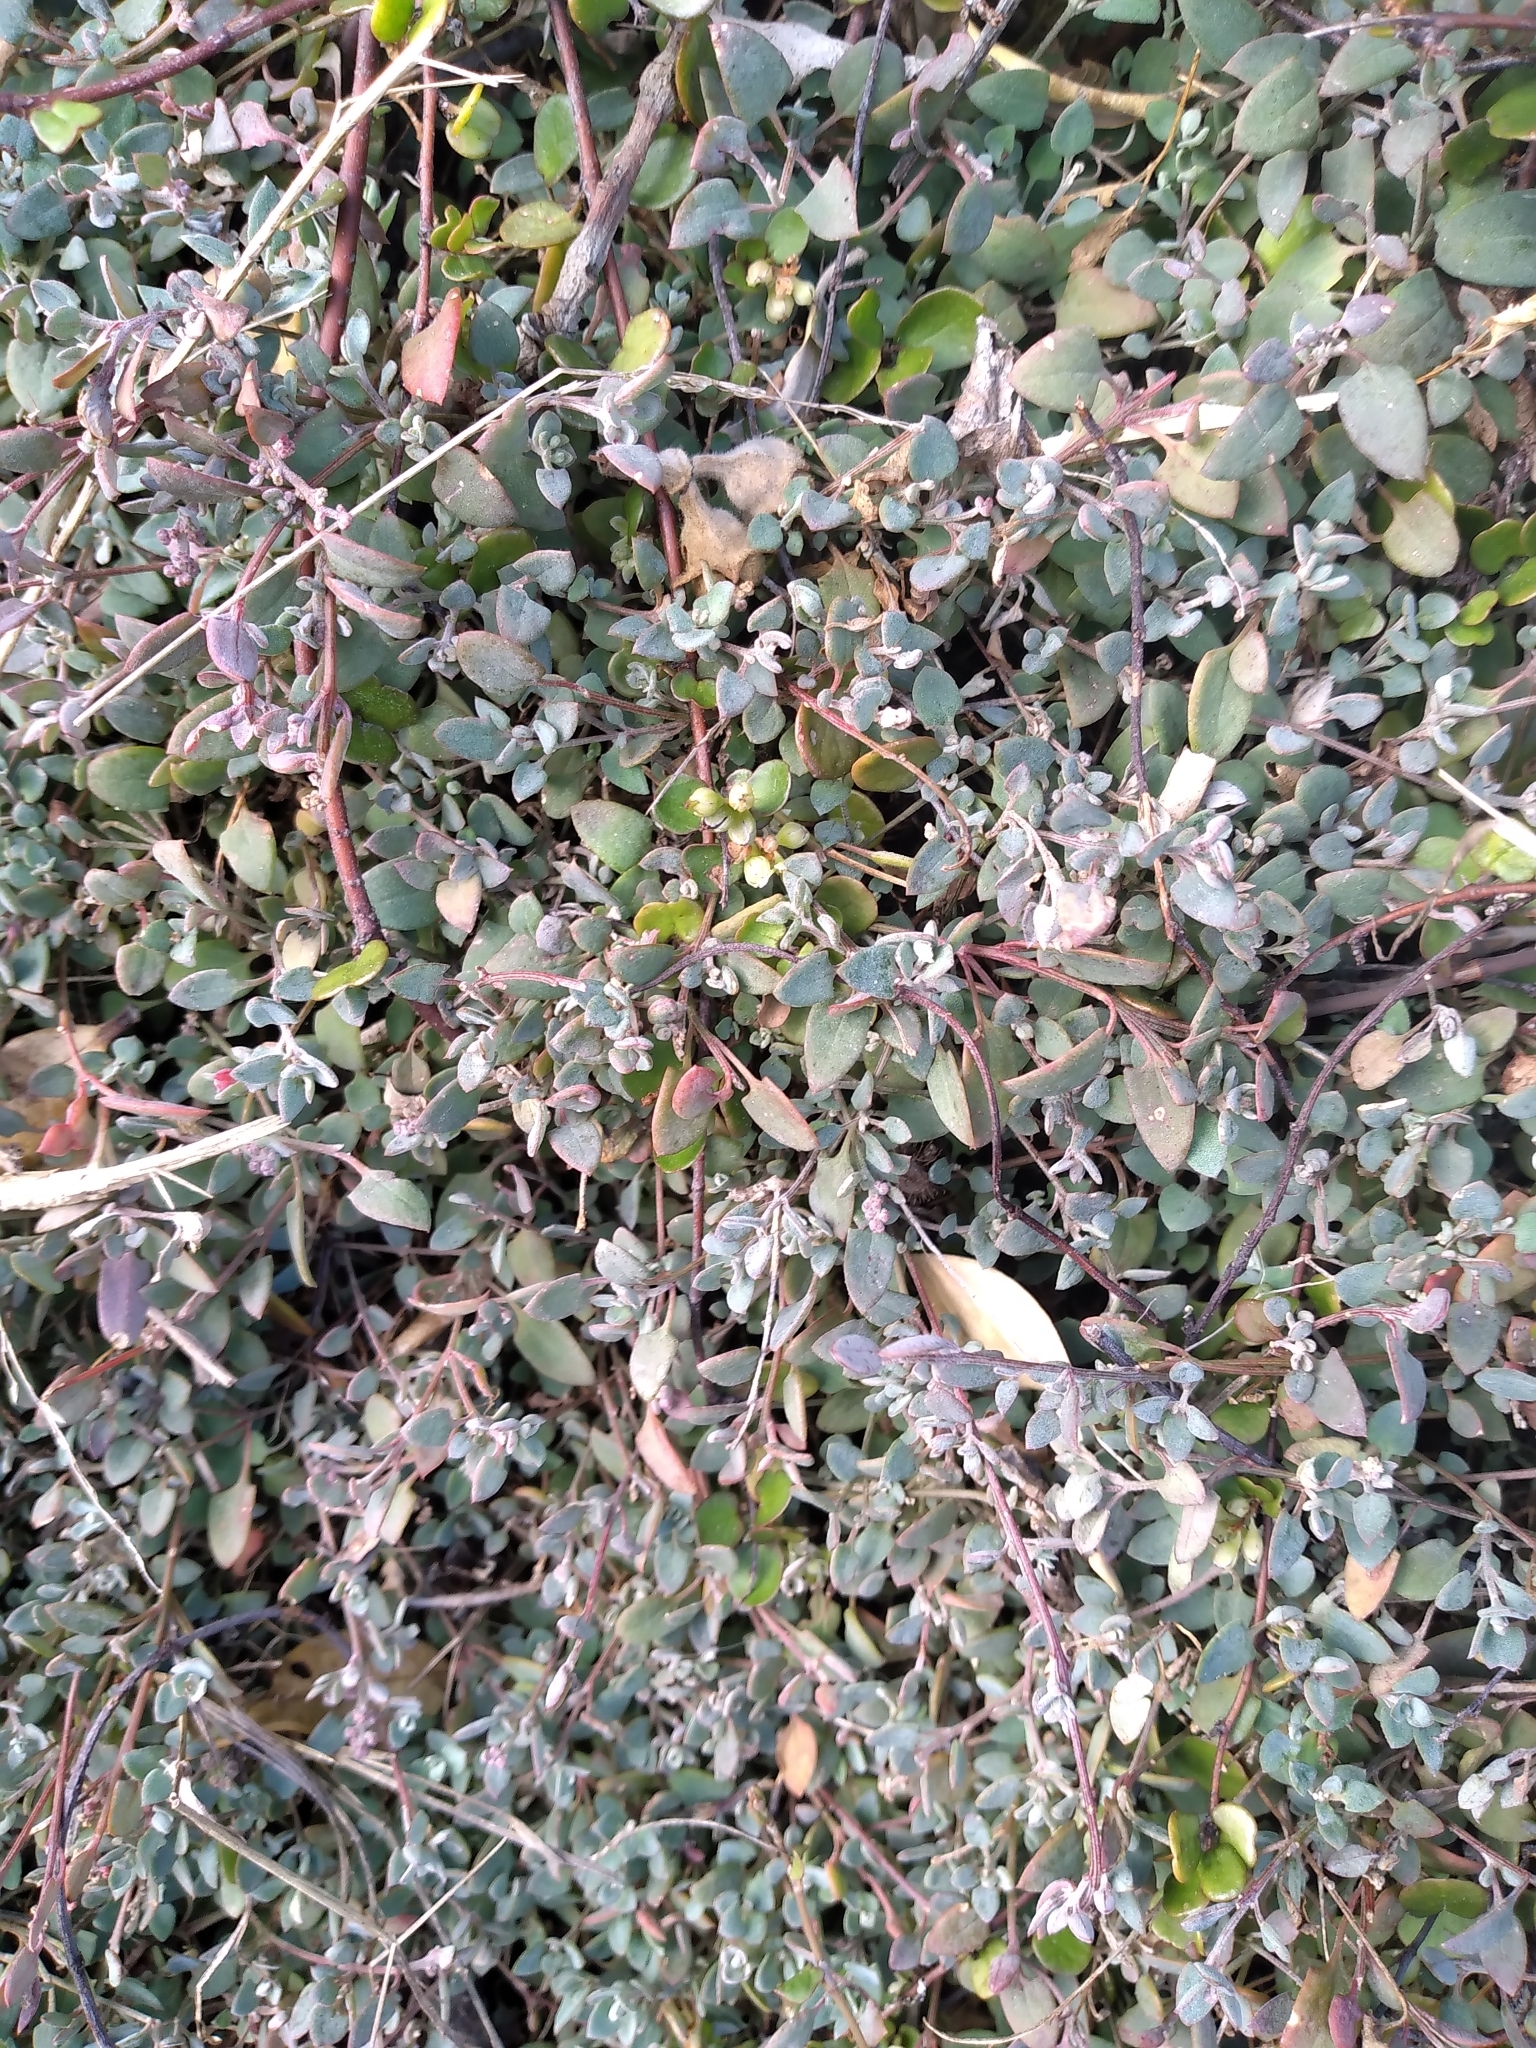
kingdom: Plantae
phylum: Tracheophyta
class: Magnoliopsida
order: Caryophyllales
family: Amaranthaceae
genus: Chenopodium
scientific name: Chenopodium triandrum
